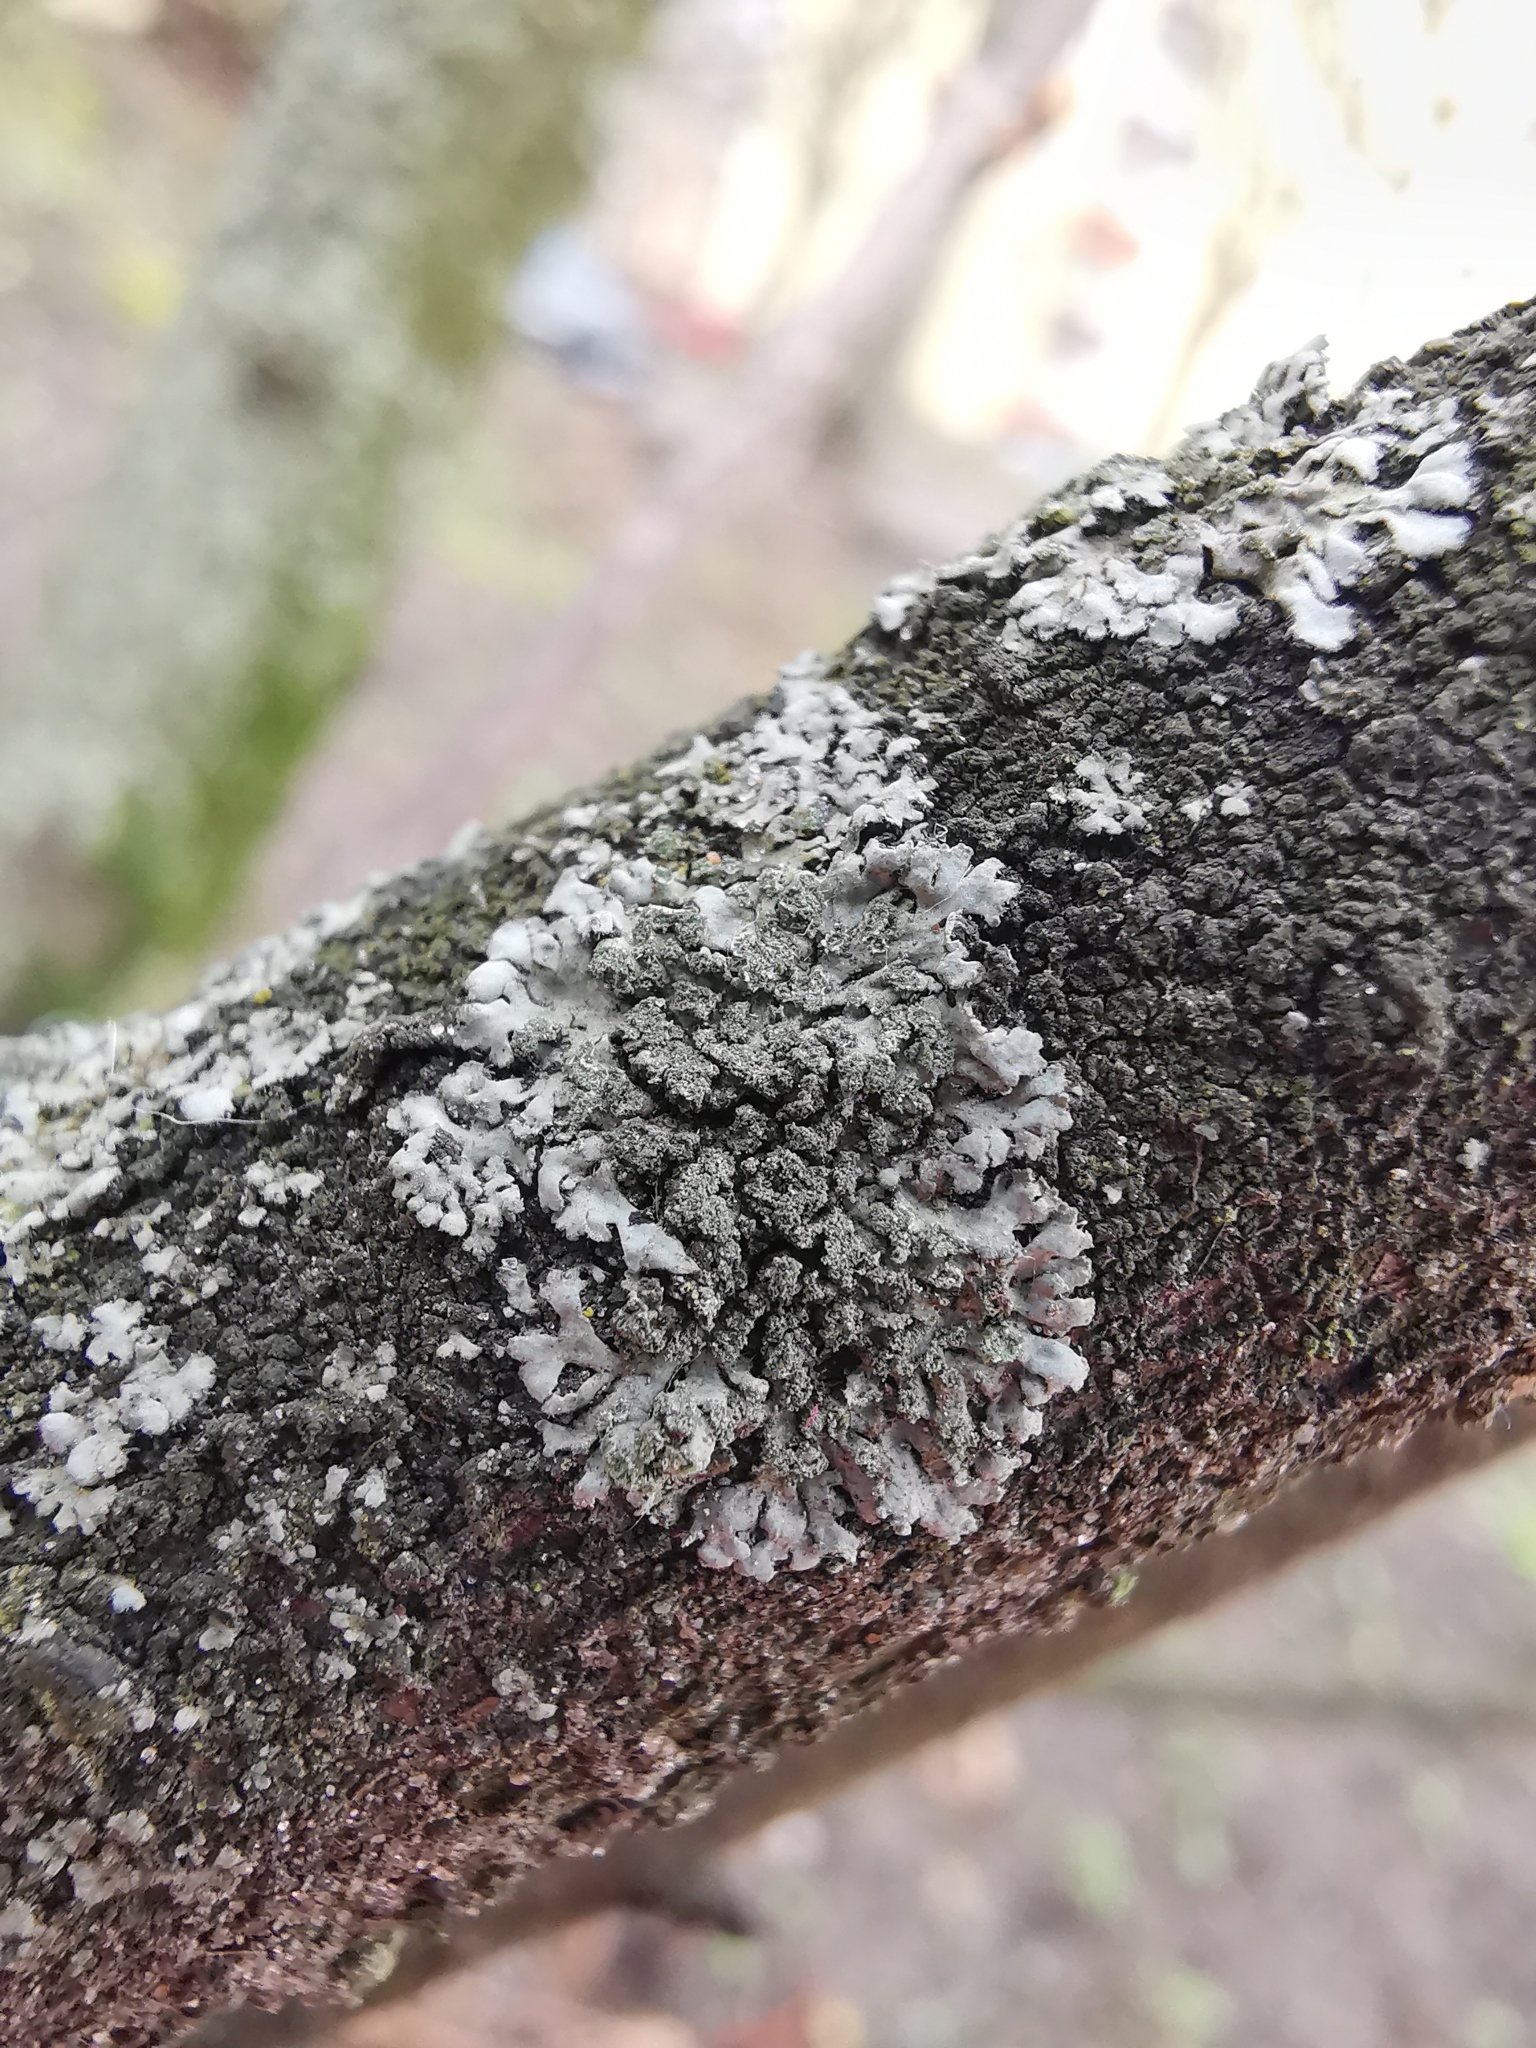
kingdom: Fungi
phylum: Ascomycota
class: Lecanoromycetes
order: Caliciales
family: Physciaceae
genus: Phaeophyscia
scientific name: Phaeophyscia orbicularis
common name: Mealy shadow lichen
